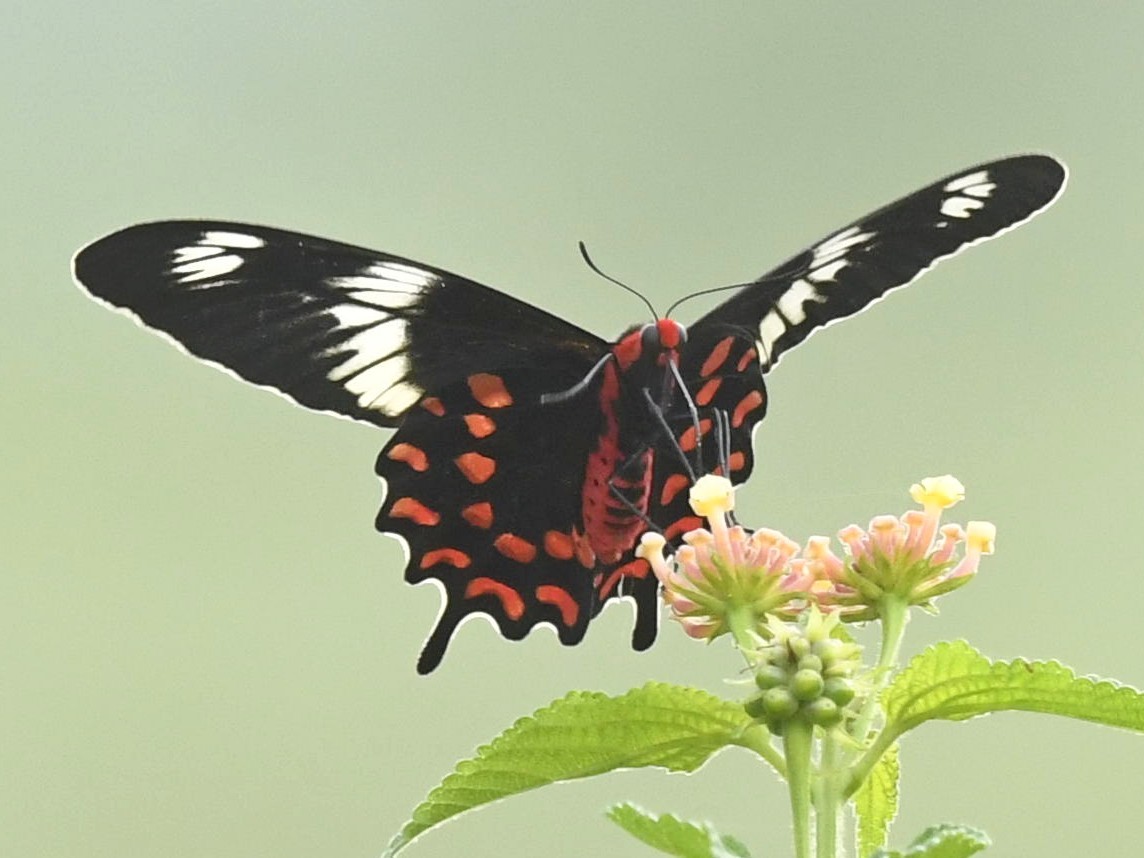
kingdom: Animalia
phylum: Arthropoda
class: Insecta
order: Lepidoptera
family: Papilionidae
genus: Pachliopta
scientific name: Pachliopta hector
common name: Crimson rose
